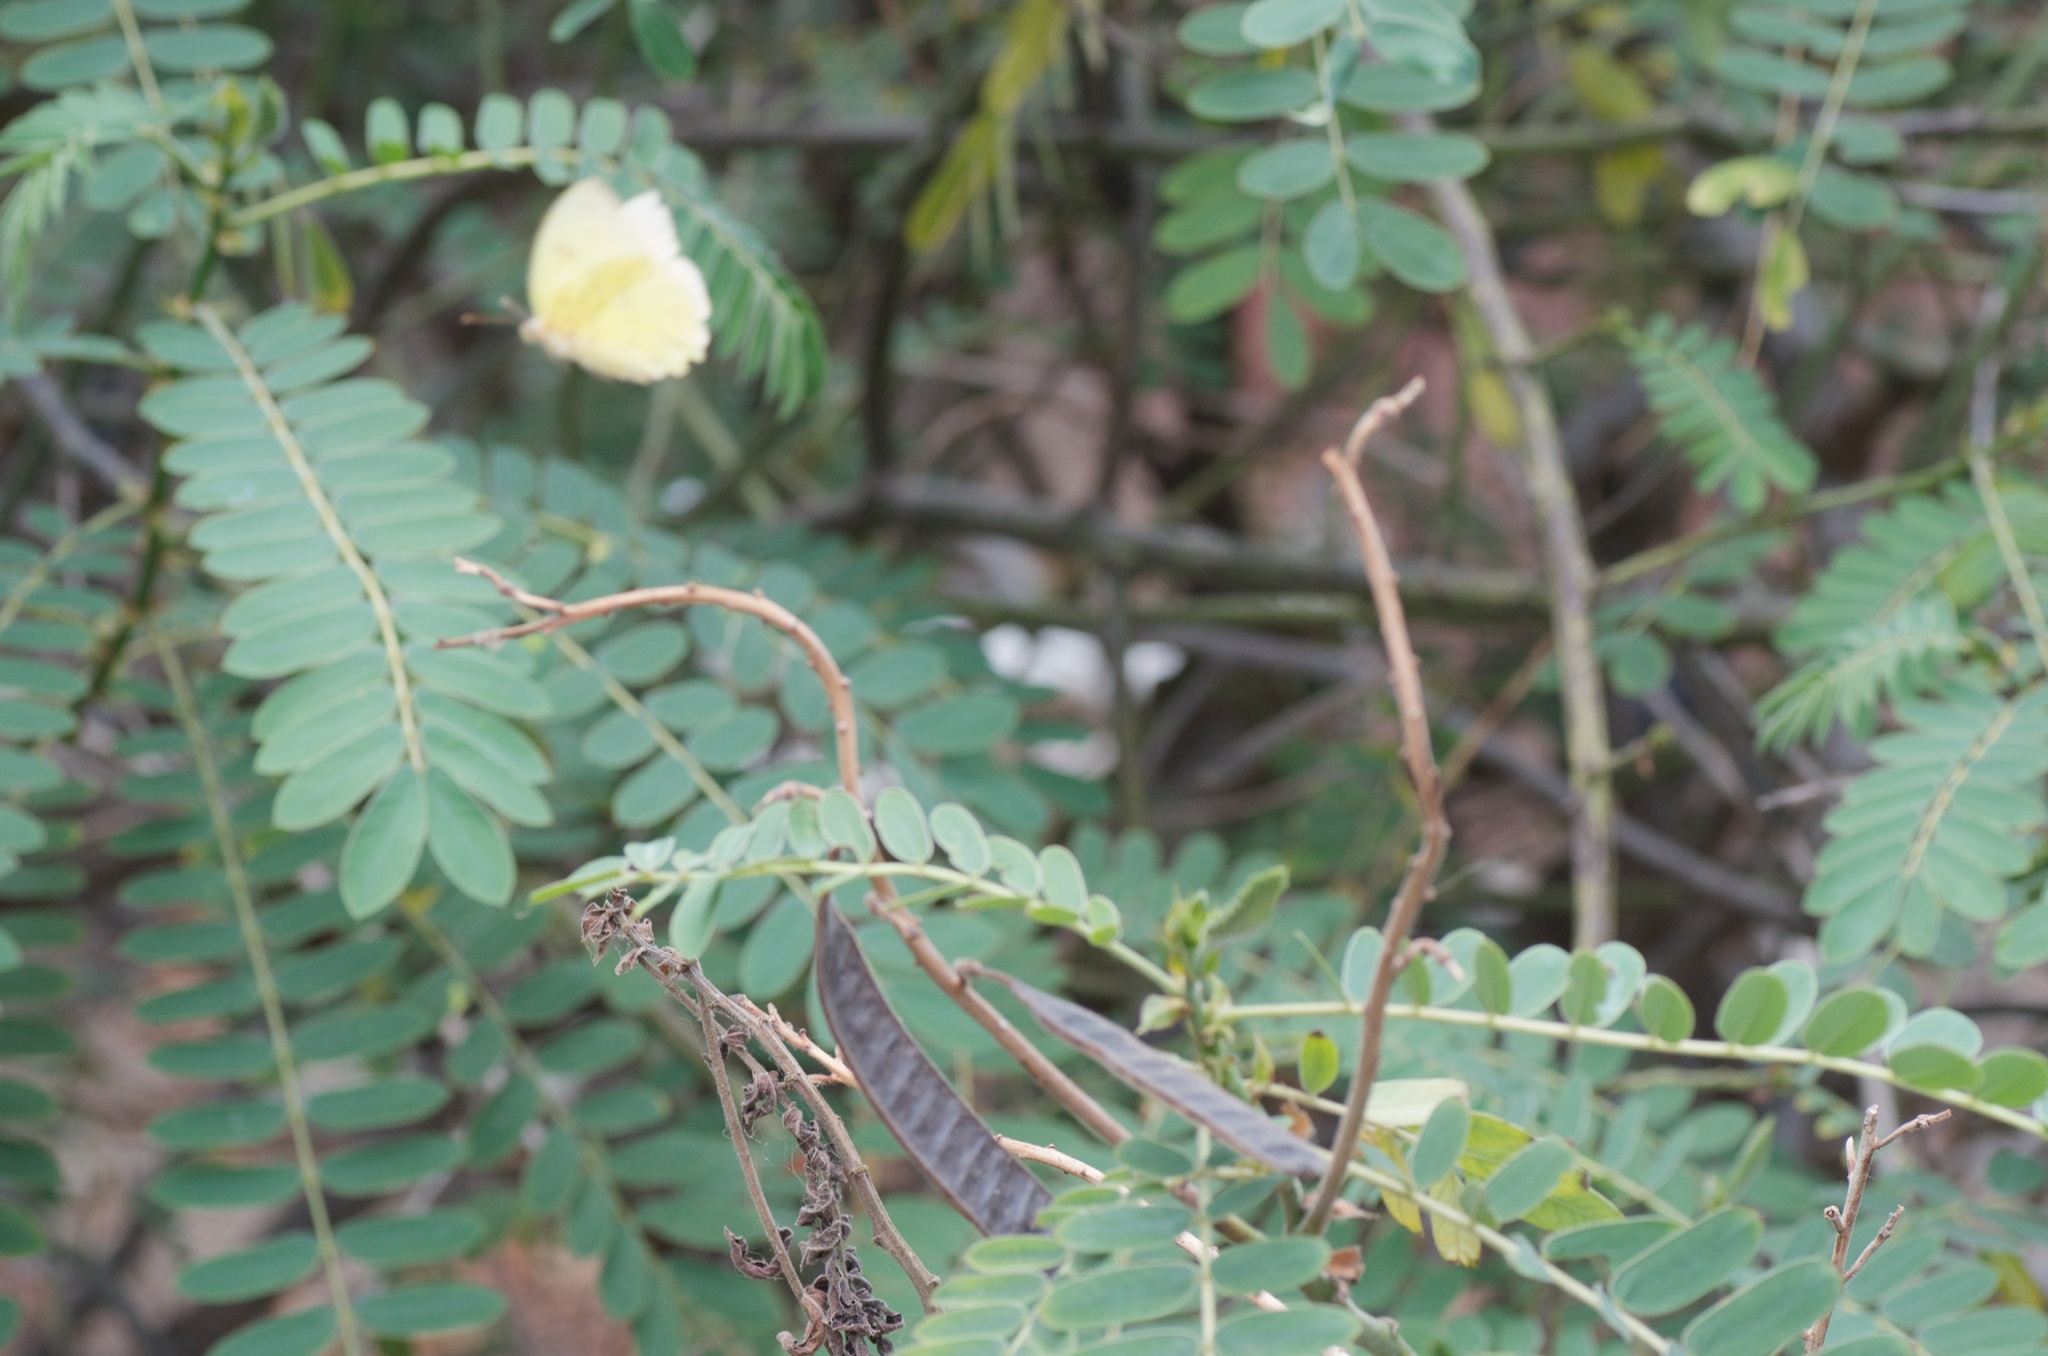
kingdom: Animalia
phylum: Arthropoda
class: Insecta
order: Lepidoptera
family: Pieridae
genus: Phoebis
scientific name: Phoebis sennae
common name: Cloudless sulphur
